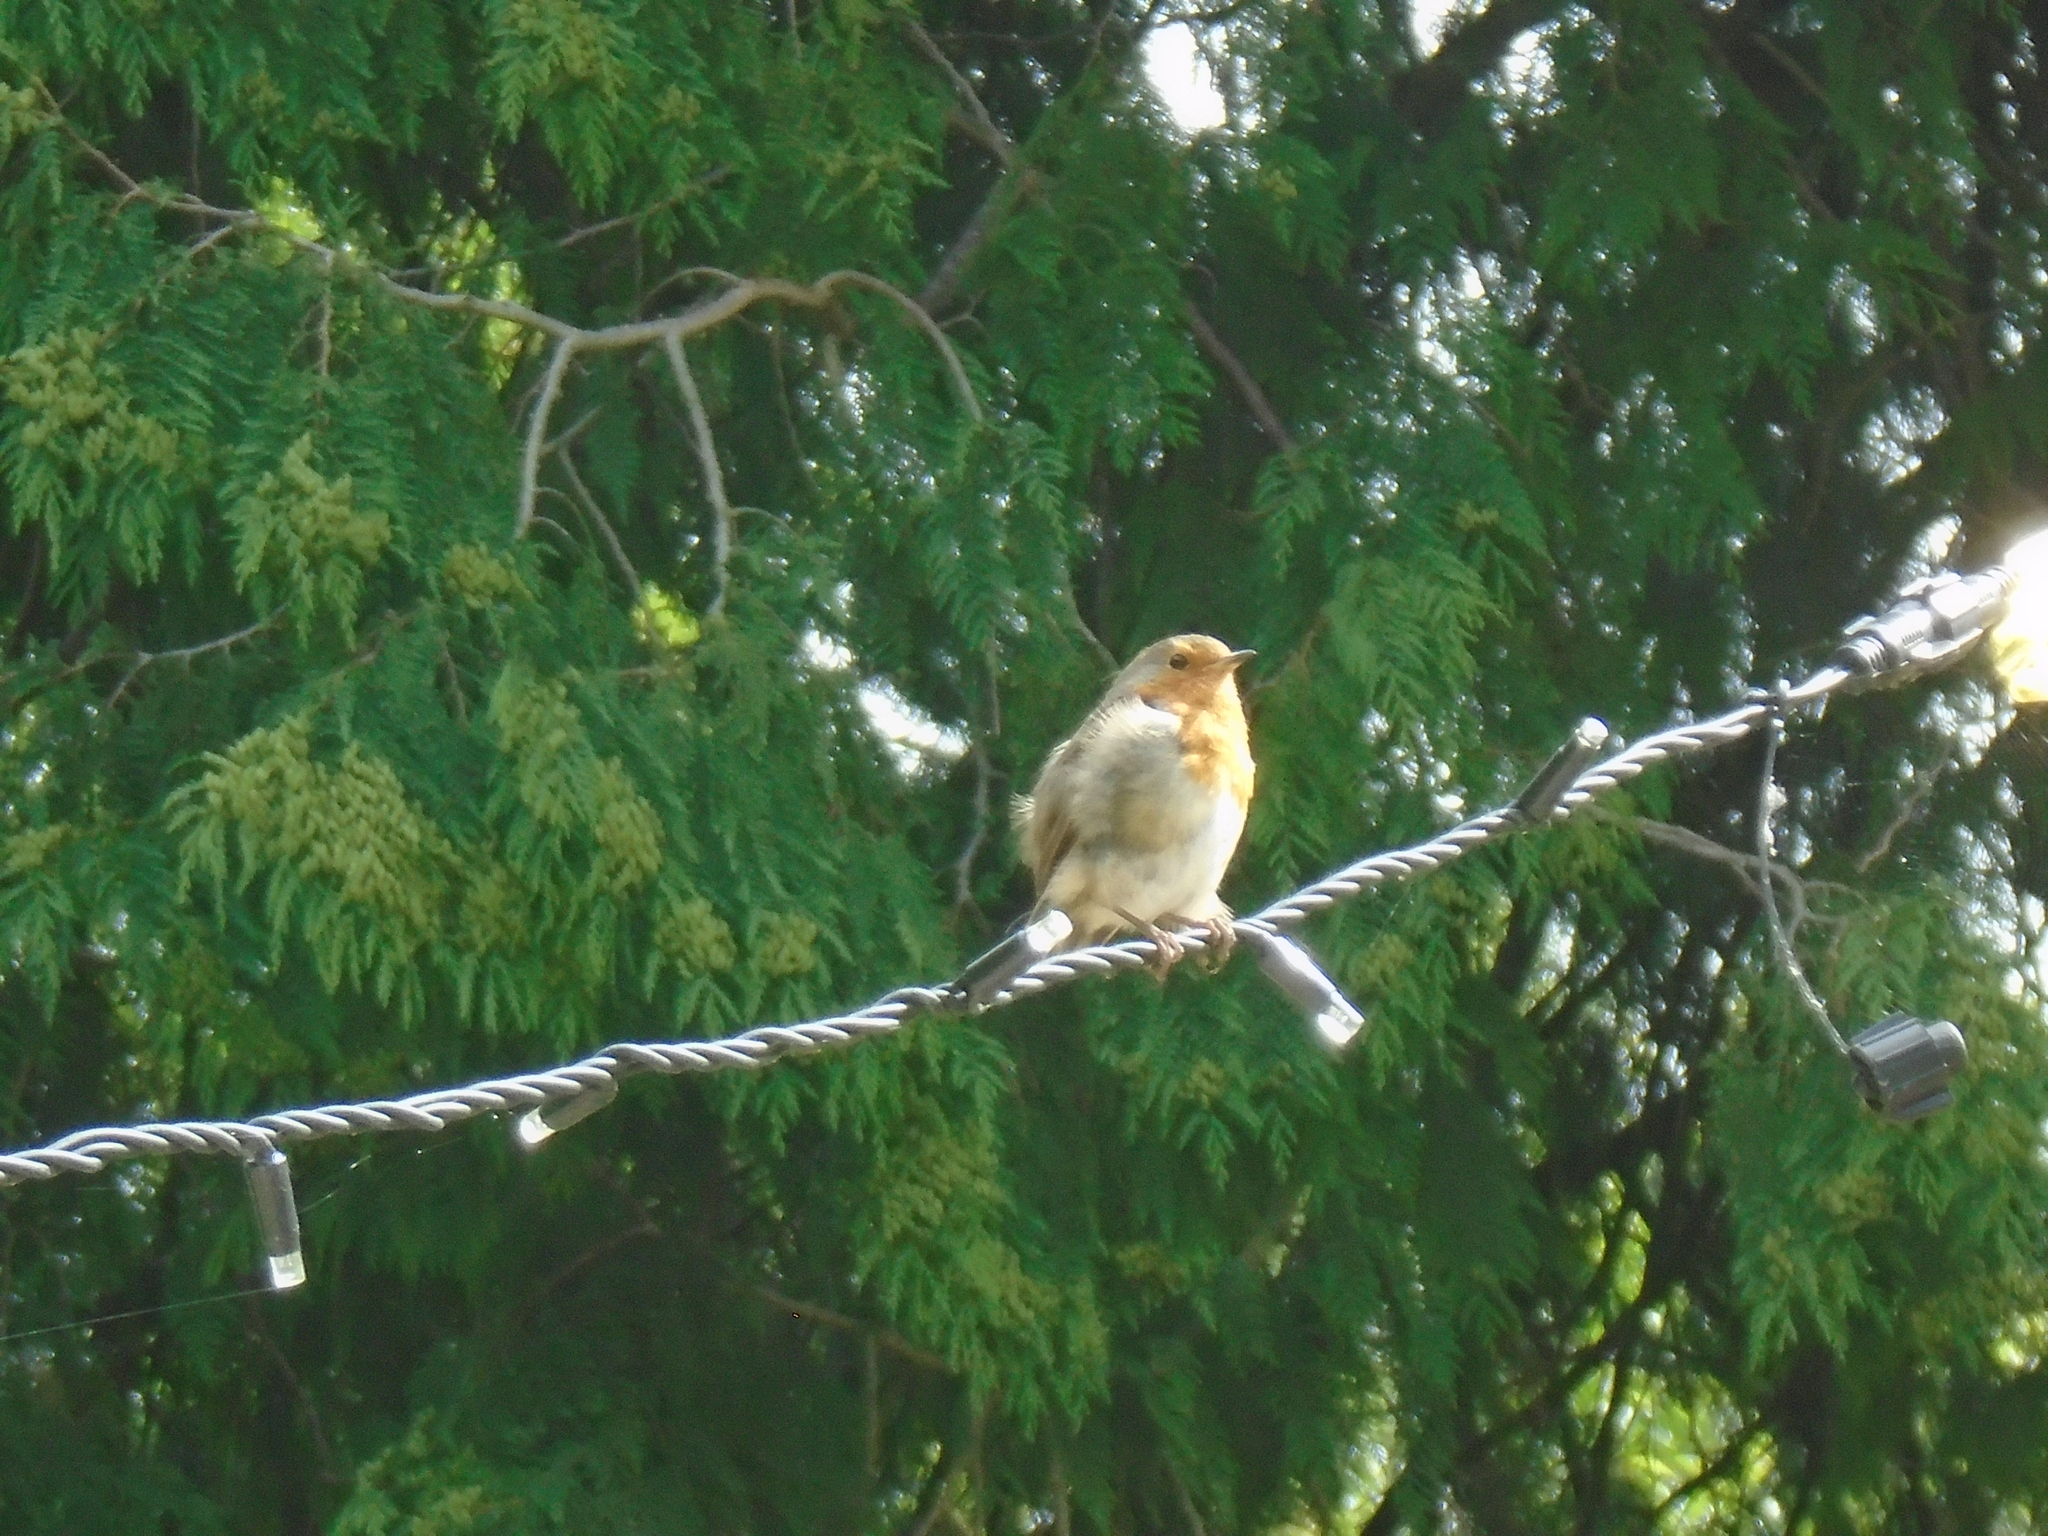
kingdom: Animalia
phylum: Chordata
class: Aves
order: Passeriformes
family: Muscicapidae
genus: Erithacus
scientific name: Erithacus rubecula
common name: European robin
